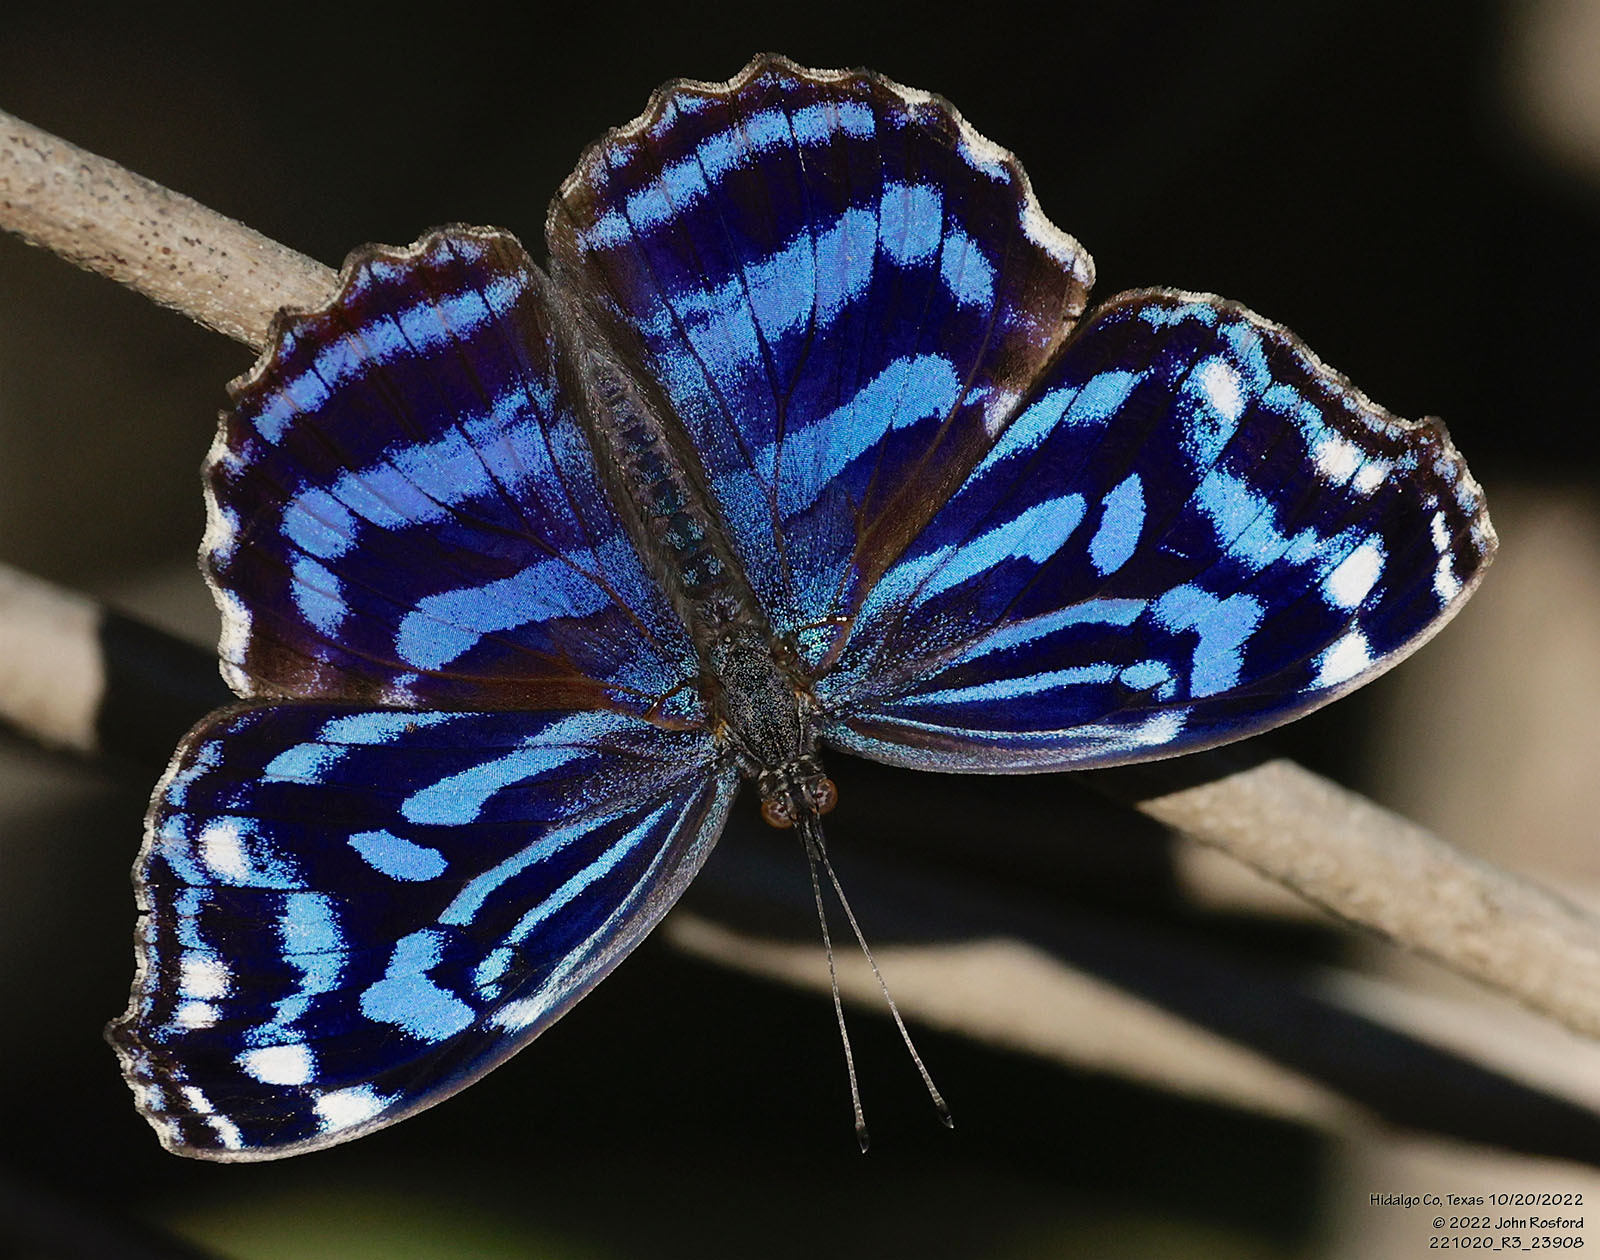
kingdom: Animalia
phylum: Arthropoda
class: Insecta
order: Lepidoptera
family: Nymphalidae
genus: Myscelia
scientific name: Myscelia ethusa
